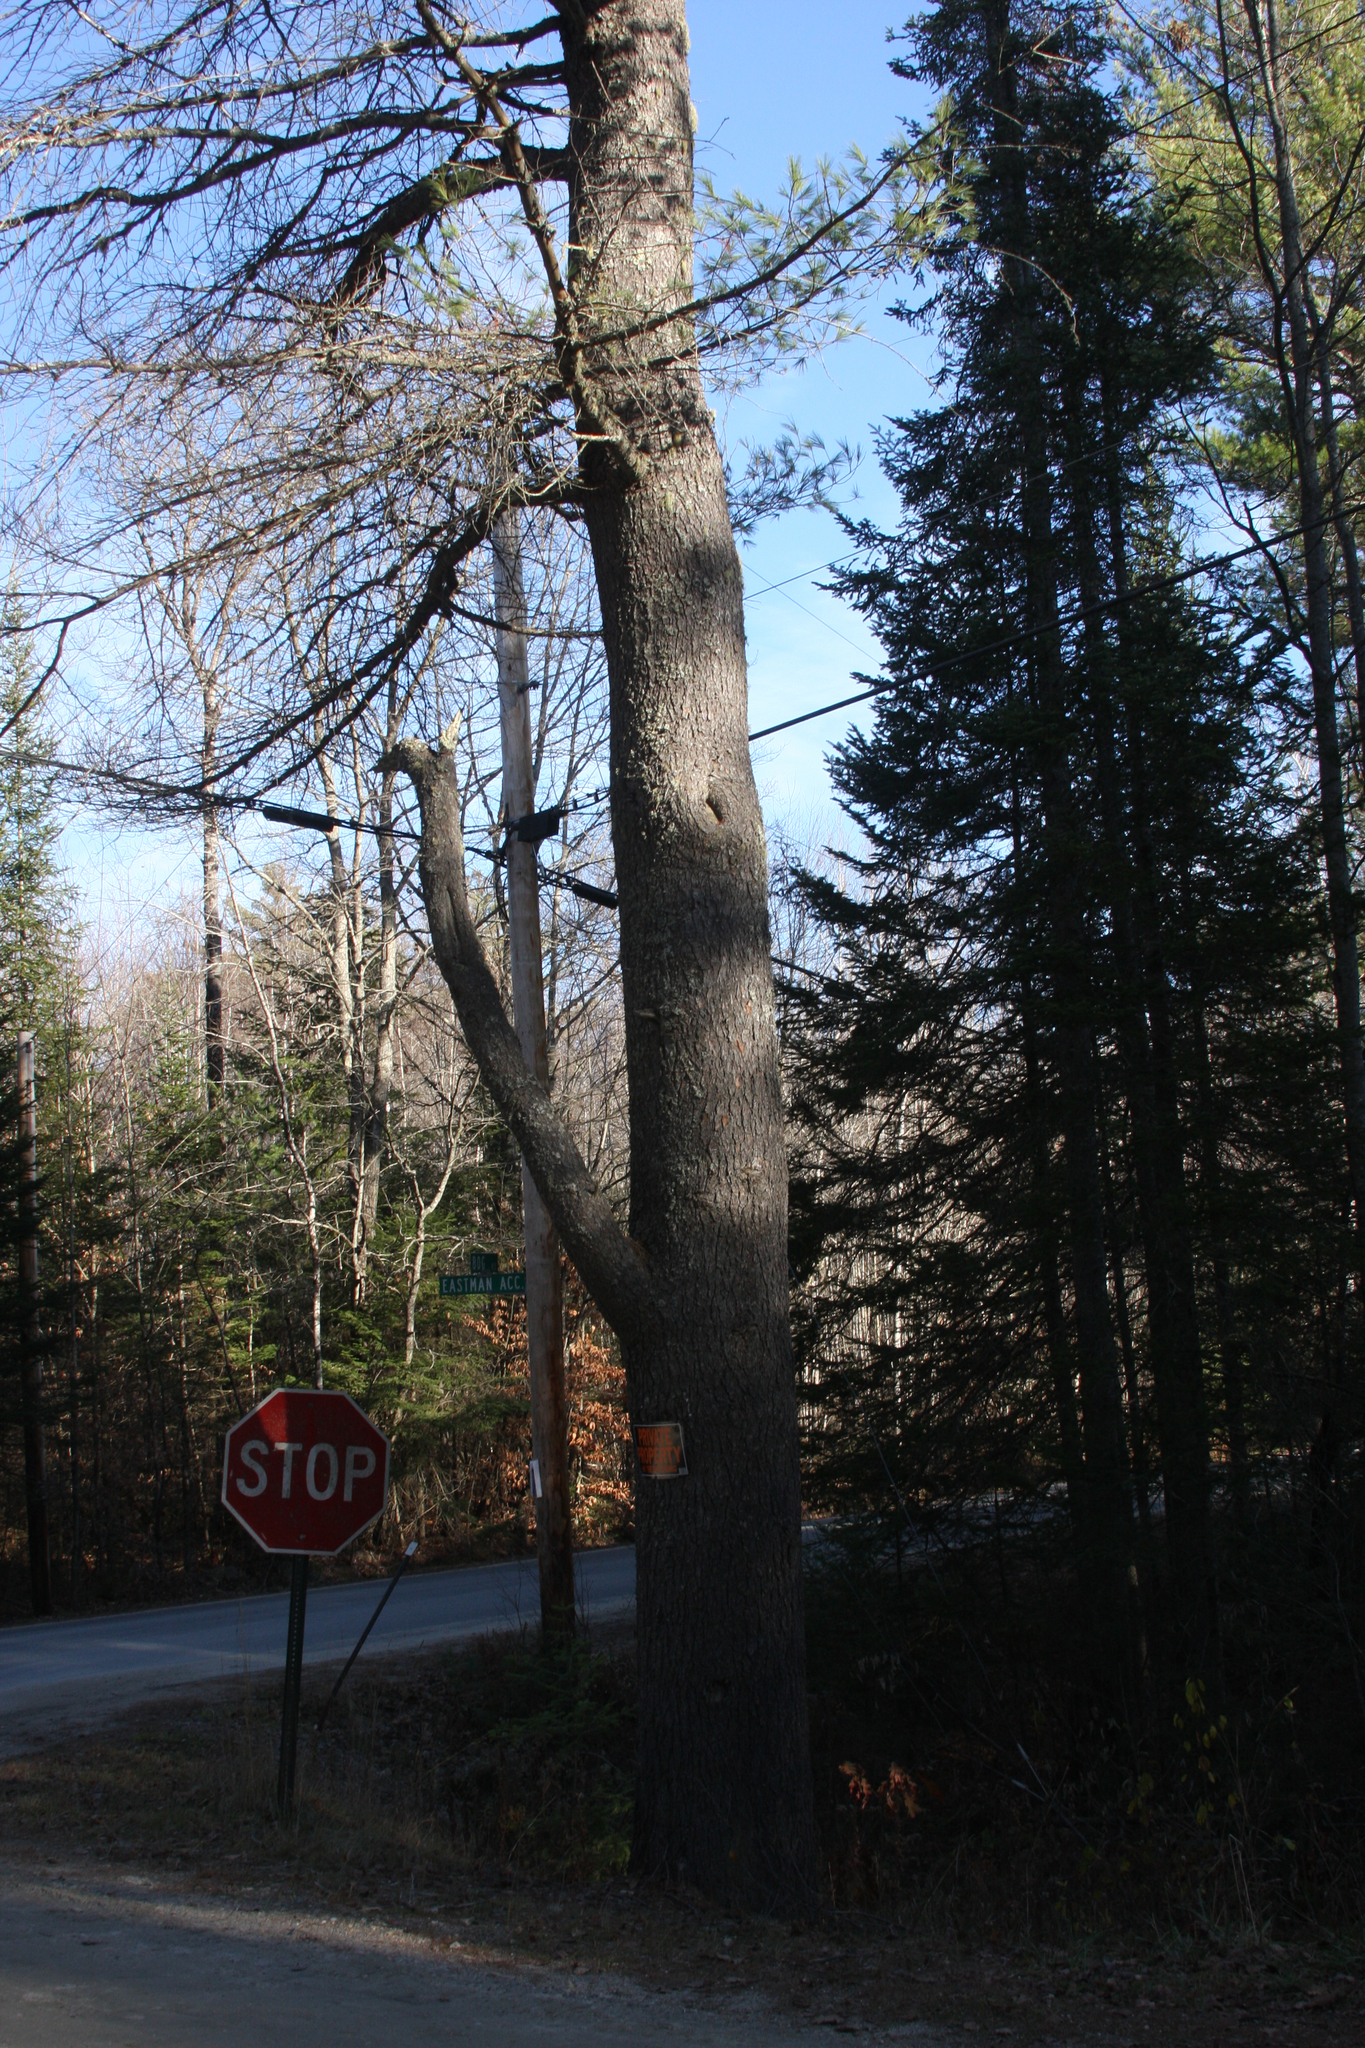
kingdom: Plantae
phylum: Tracheophyta
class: Pinopsida
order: Pinales
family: Pinaceae
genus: Pinus
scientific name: Pinus strobus
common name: Weymouth pine
